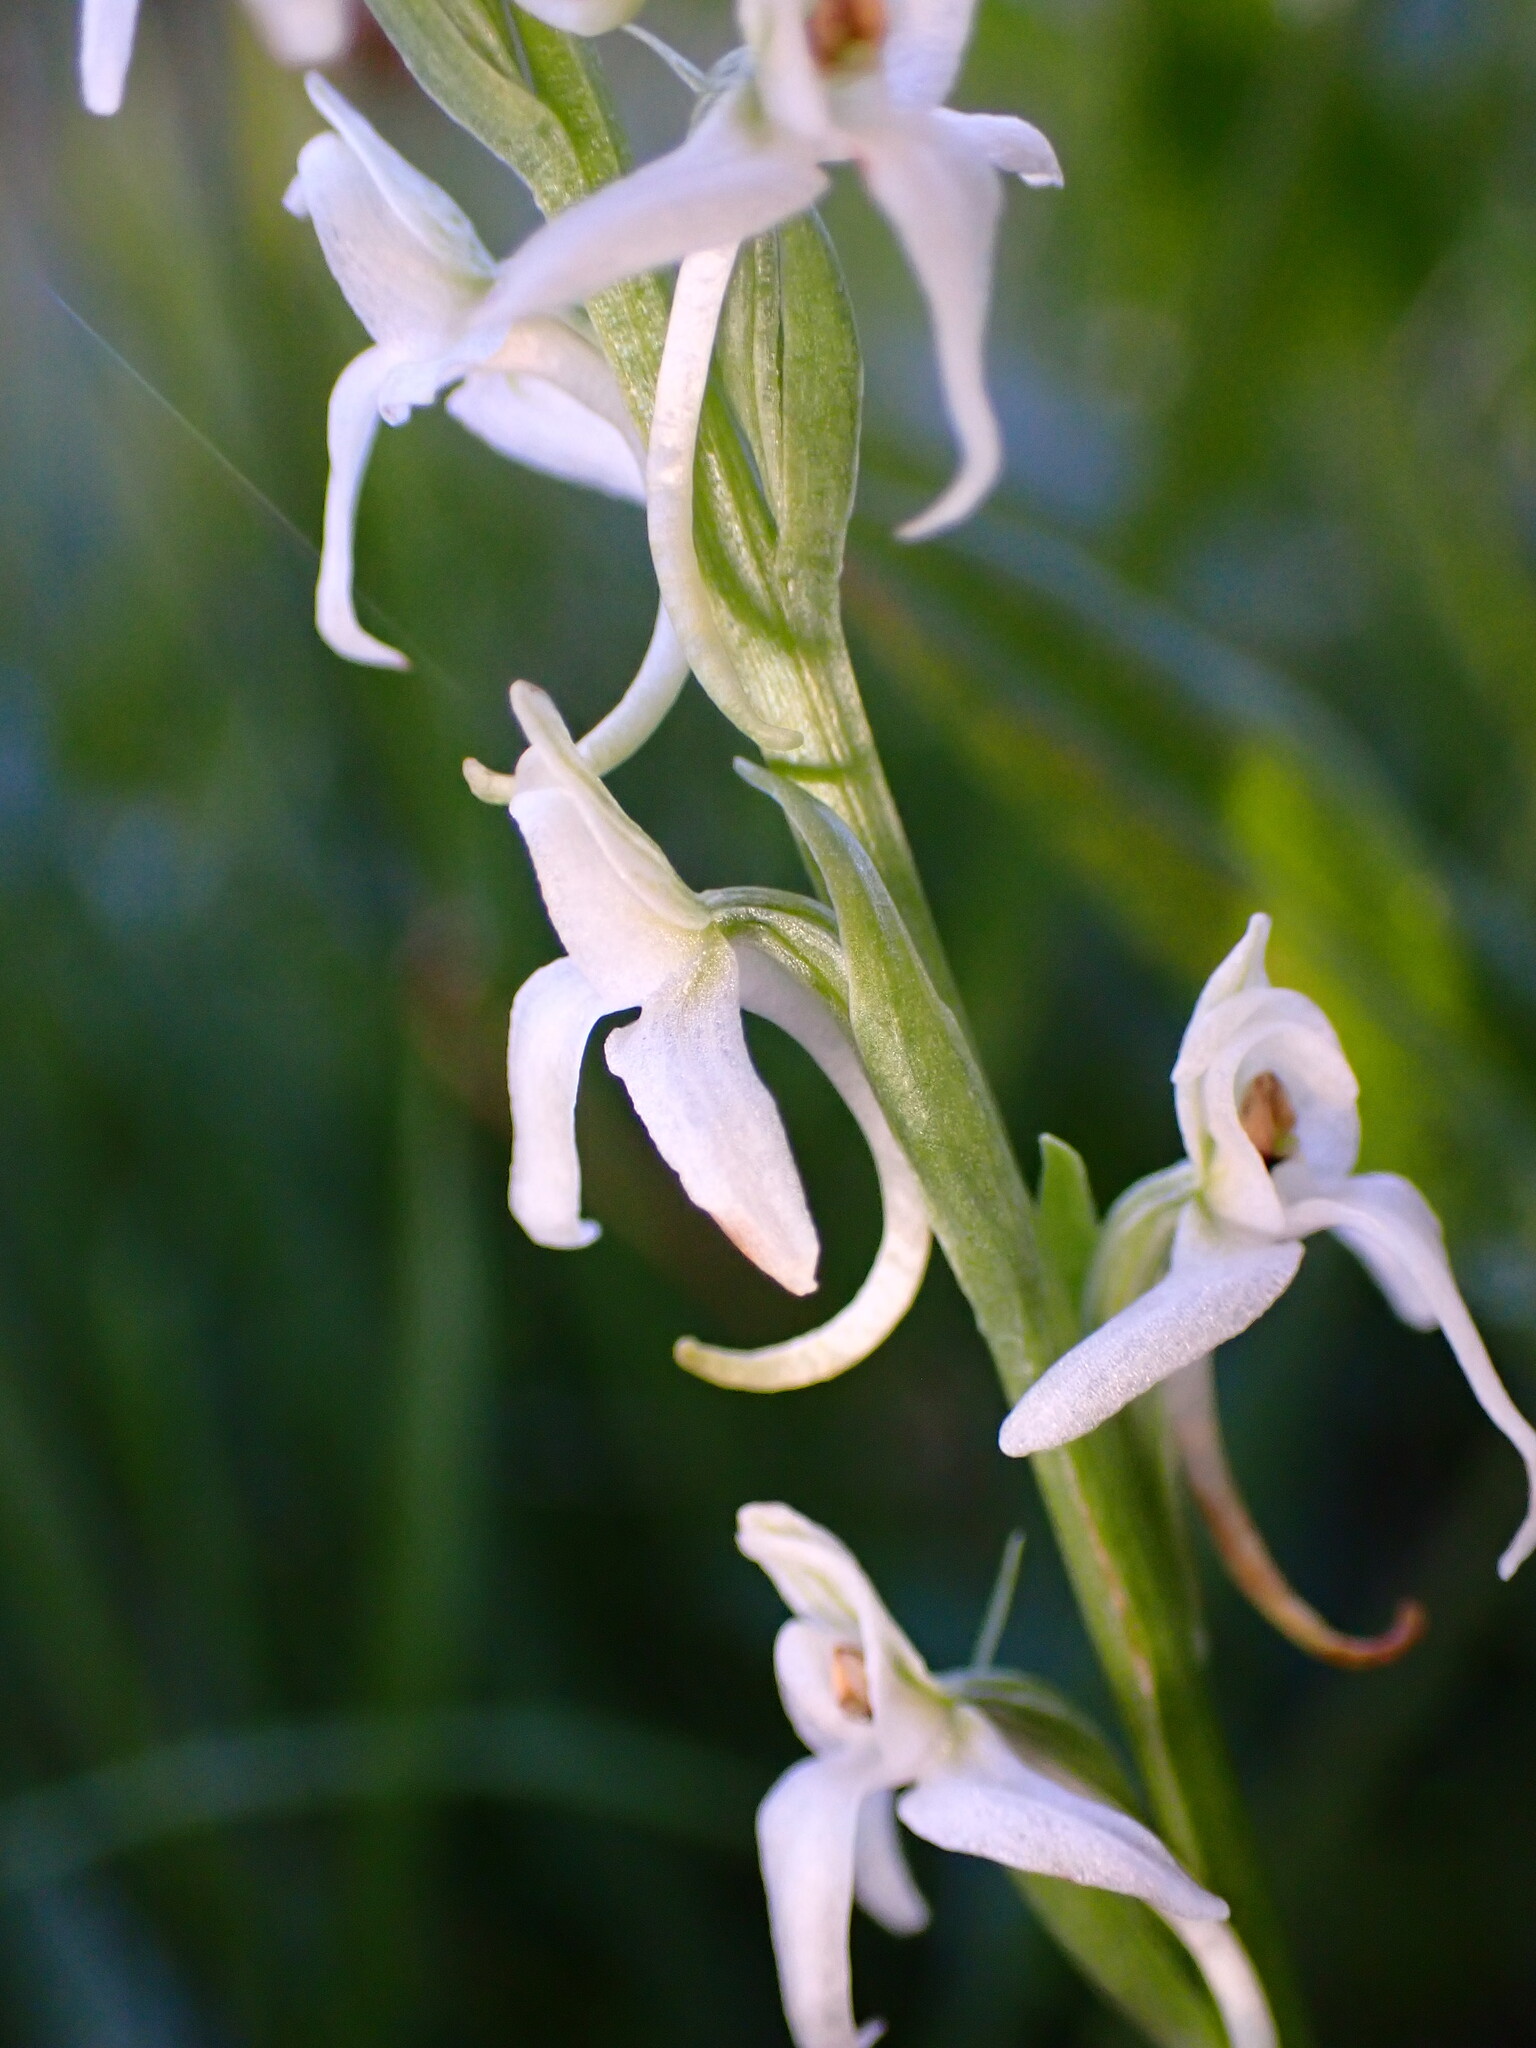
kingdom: Plantae
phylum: Tracheophyta
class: Liliopsida
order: Asparagales
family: Orchidaceae
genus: Platanthera
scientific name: Platanthera dilatata
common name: Bog candles
